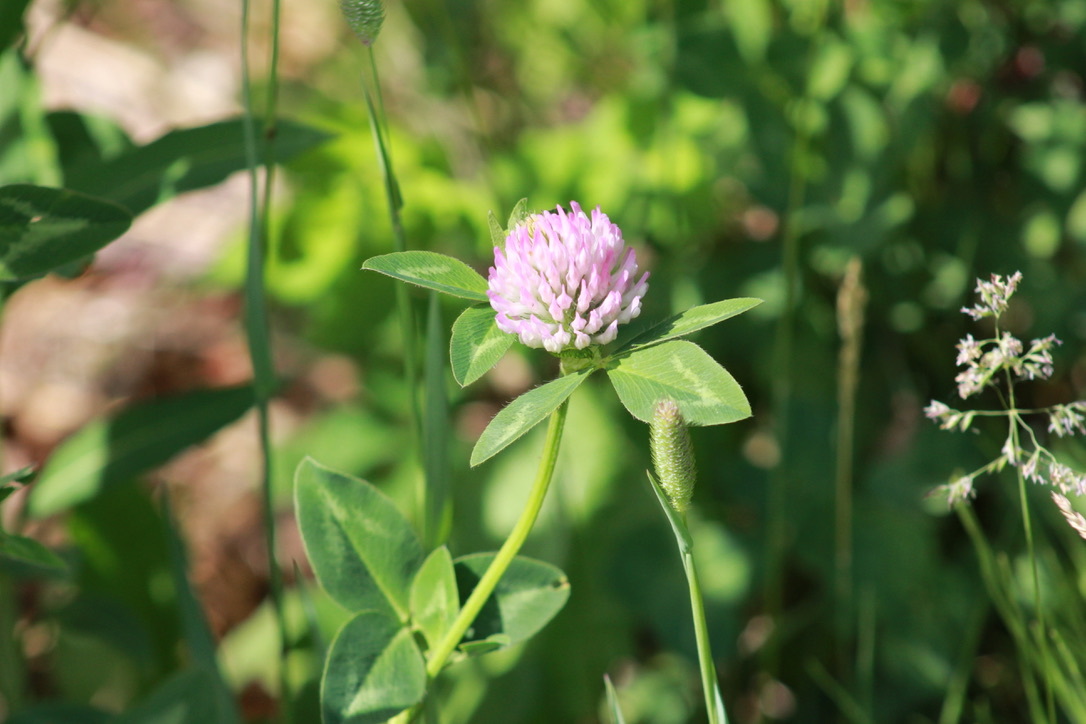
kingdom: Plantae
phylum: Tracheophyta
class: Magnoliopsida
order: Fabales
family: Fabaceae
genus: Trifolium
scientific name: Trifolium pratense
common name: Red clover
